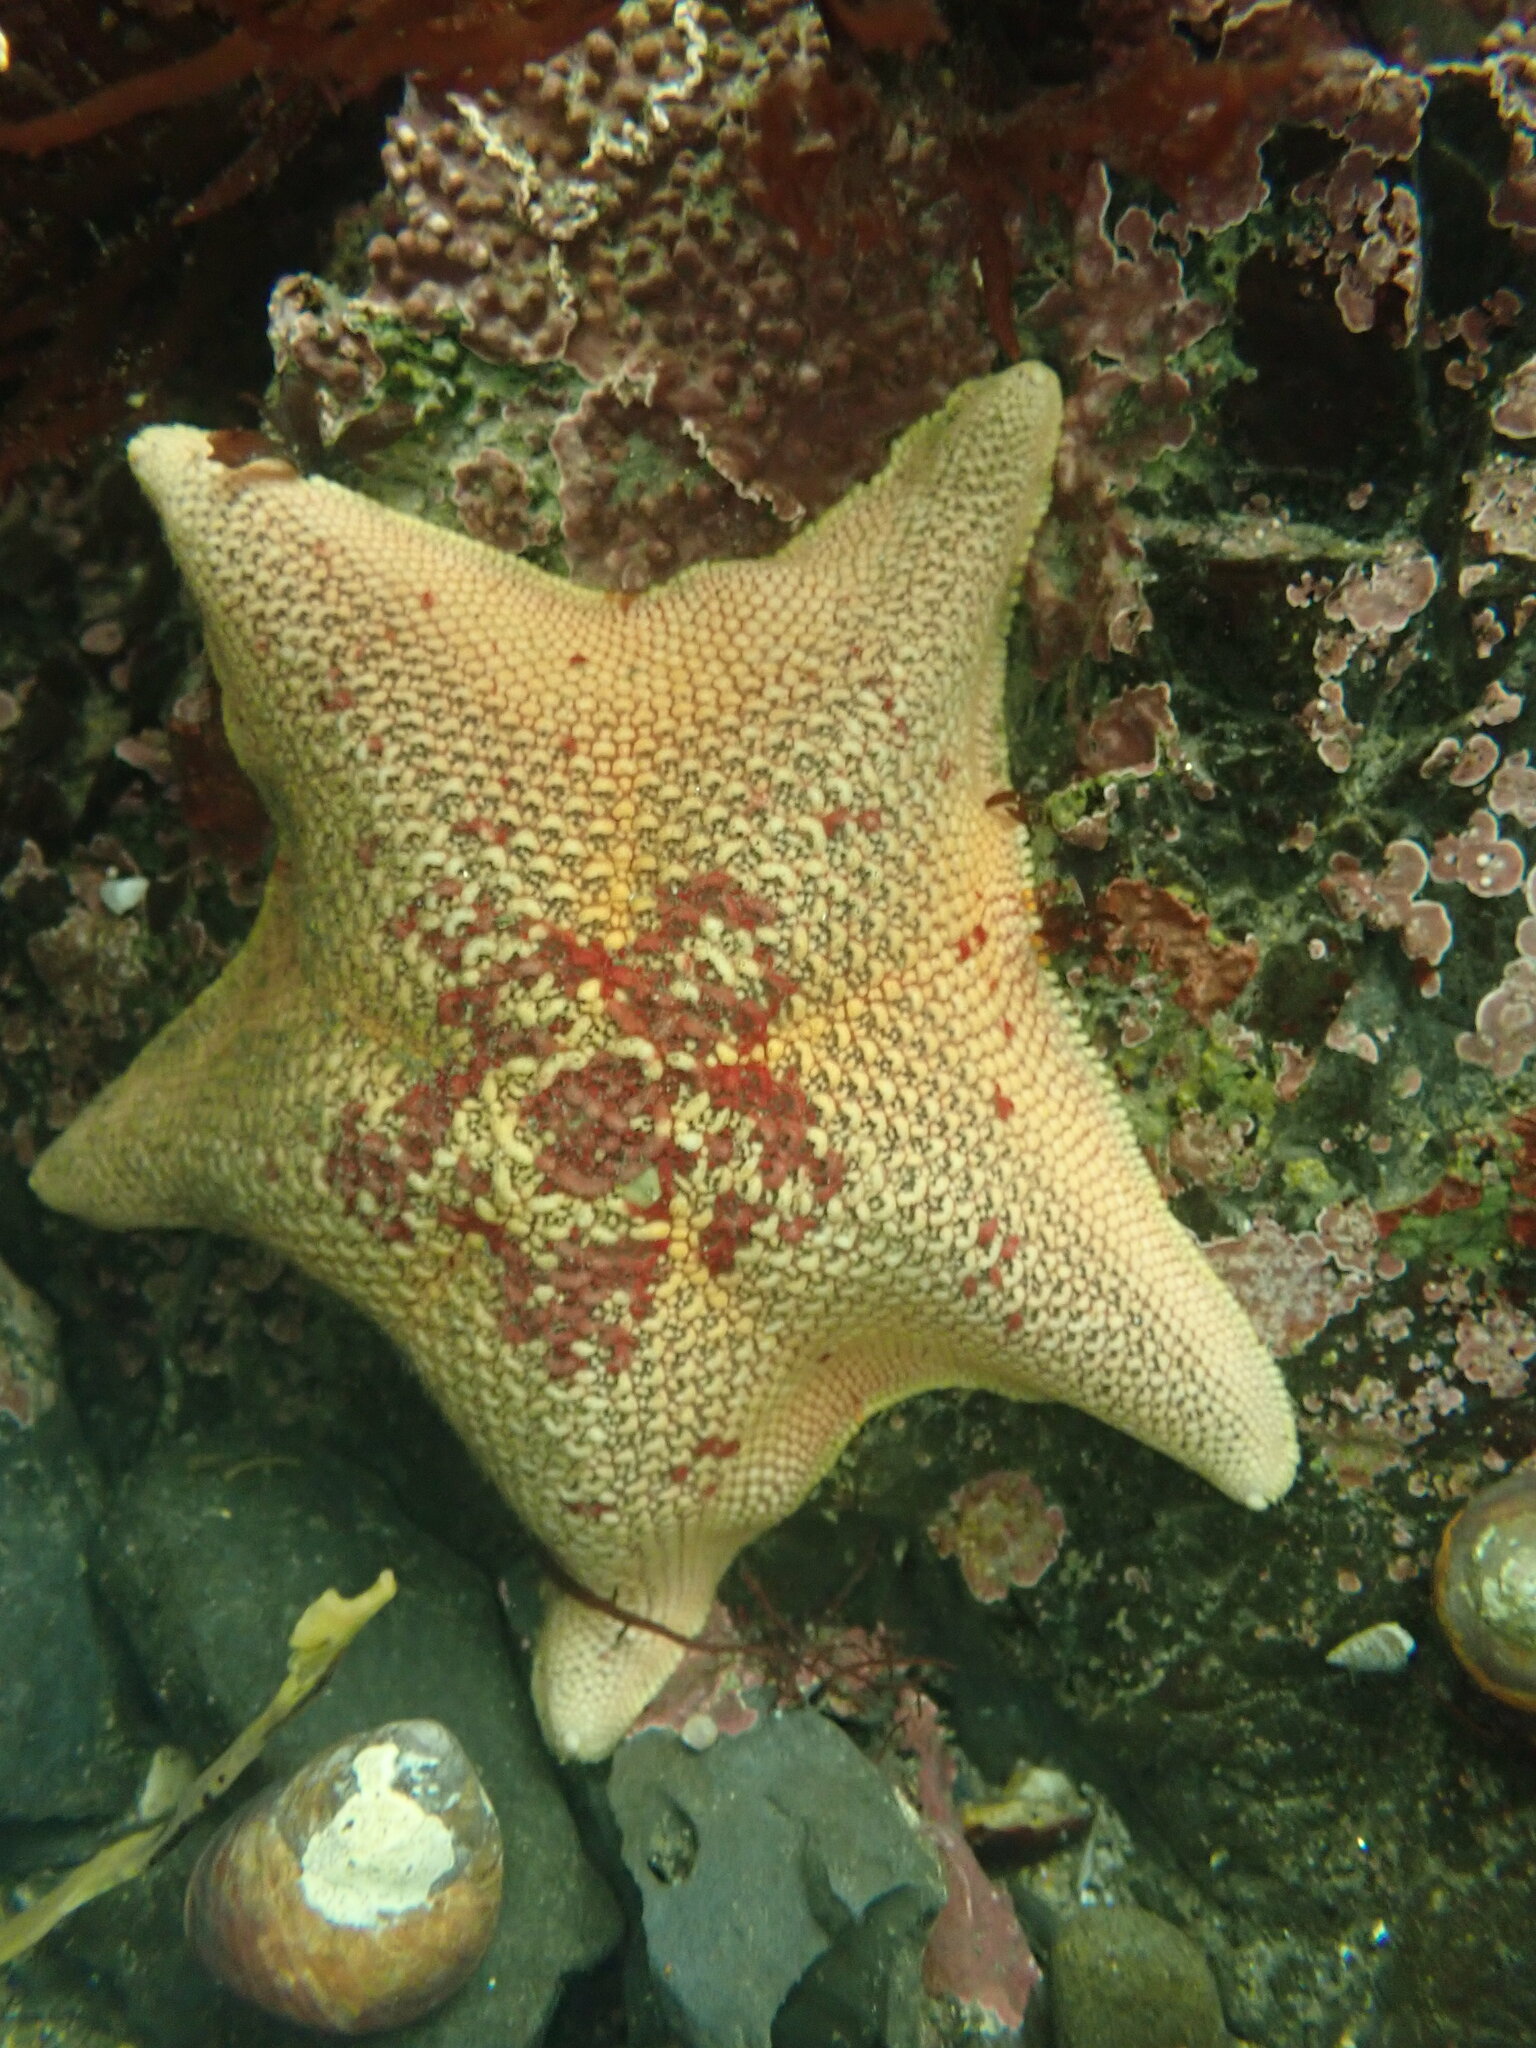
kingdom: Animalia
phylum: Echinodermata
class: Asteroidea
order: Valvatida
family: Asterinidae
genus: Patiria
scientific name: Patiria miniata
